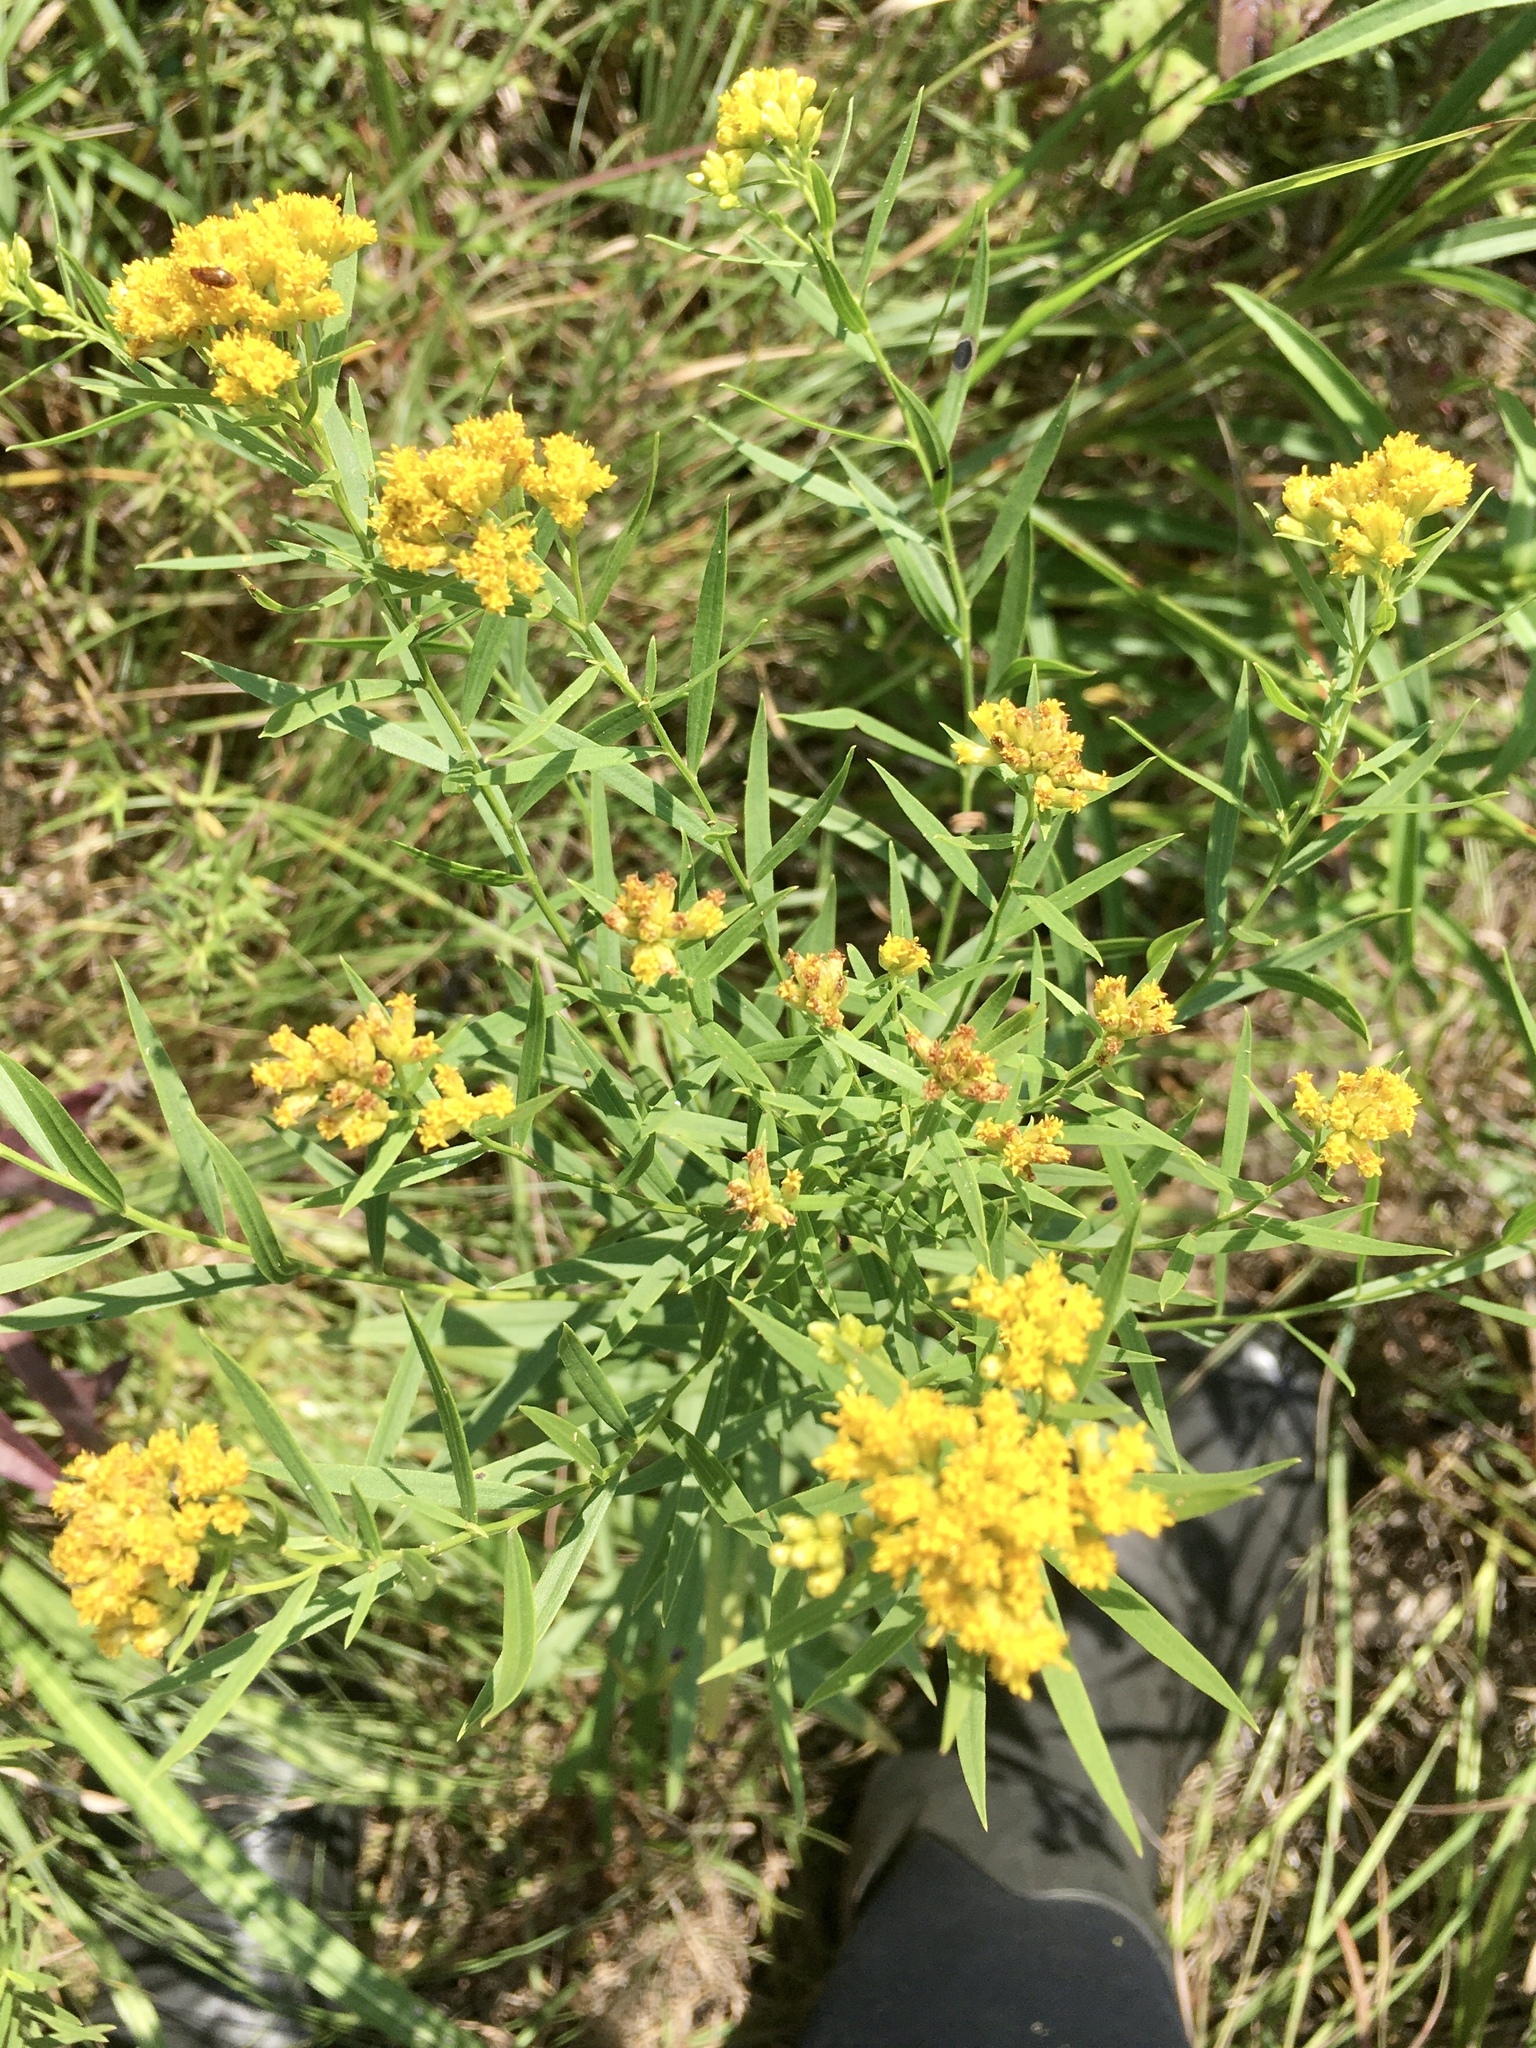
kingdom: Plantae
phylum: Tracheophyta
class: Magnoliopsida
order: Asterales
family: Asteraceae
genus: Euthamia
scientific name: Euthamia graminifolia
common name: Common goldentop
